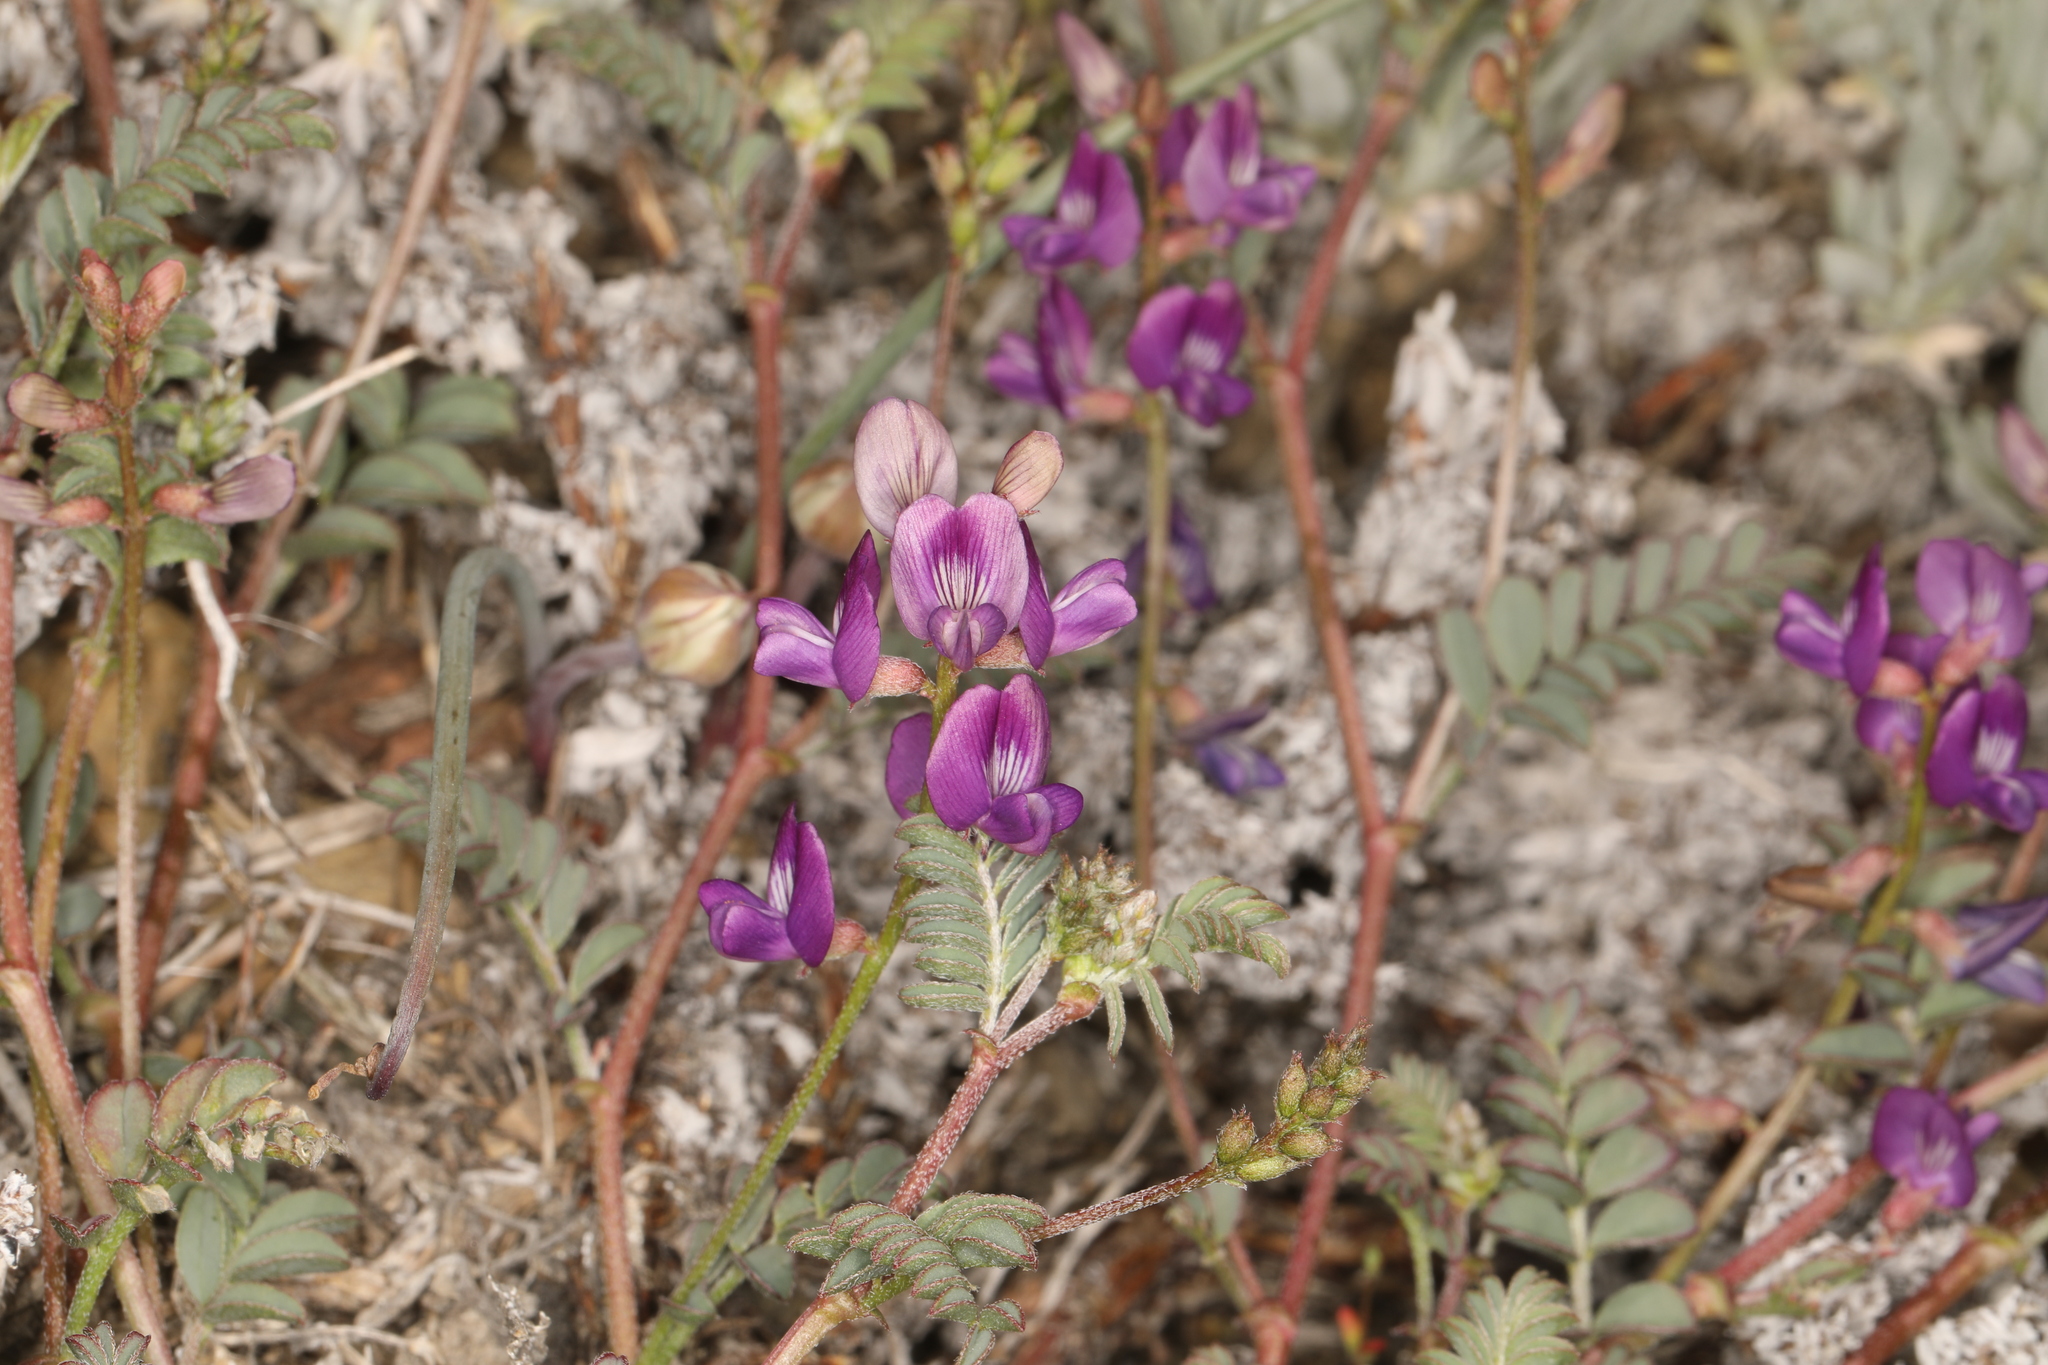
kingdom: Plantae
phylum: Tracheophyta
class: Magnoliopsida
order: Fabales
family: Fabaceae
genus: Astragalus
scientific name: Astragalus inyoensis
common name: Inyo locoweed
